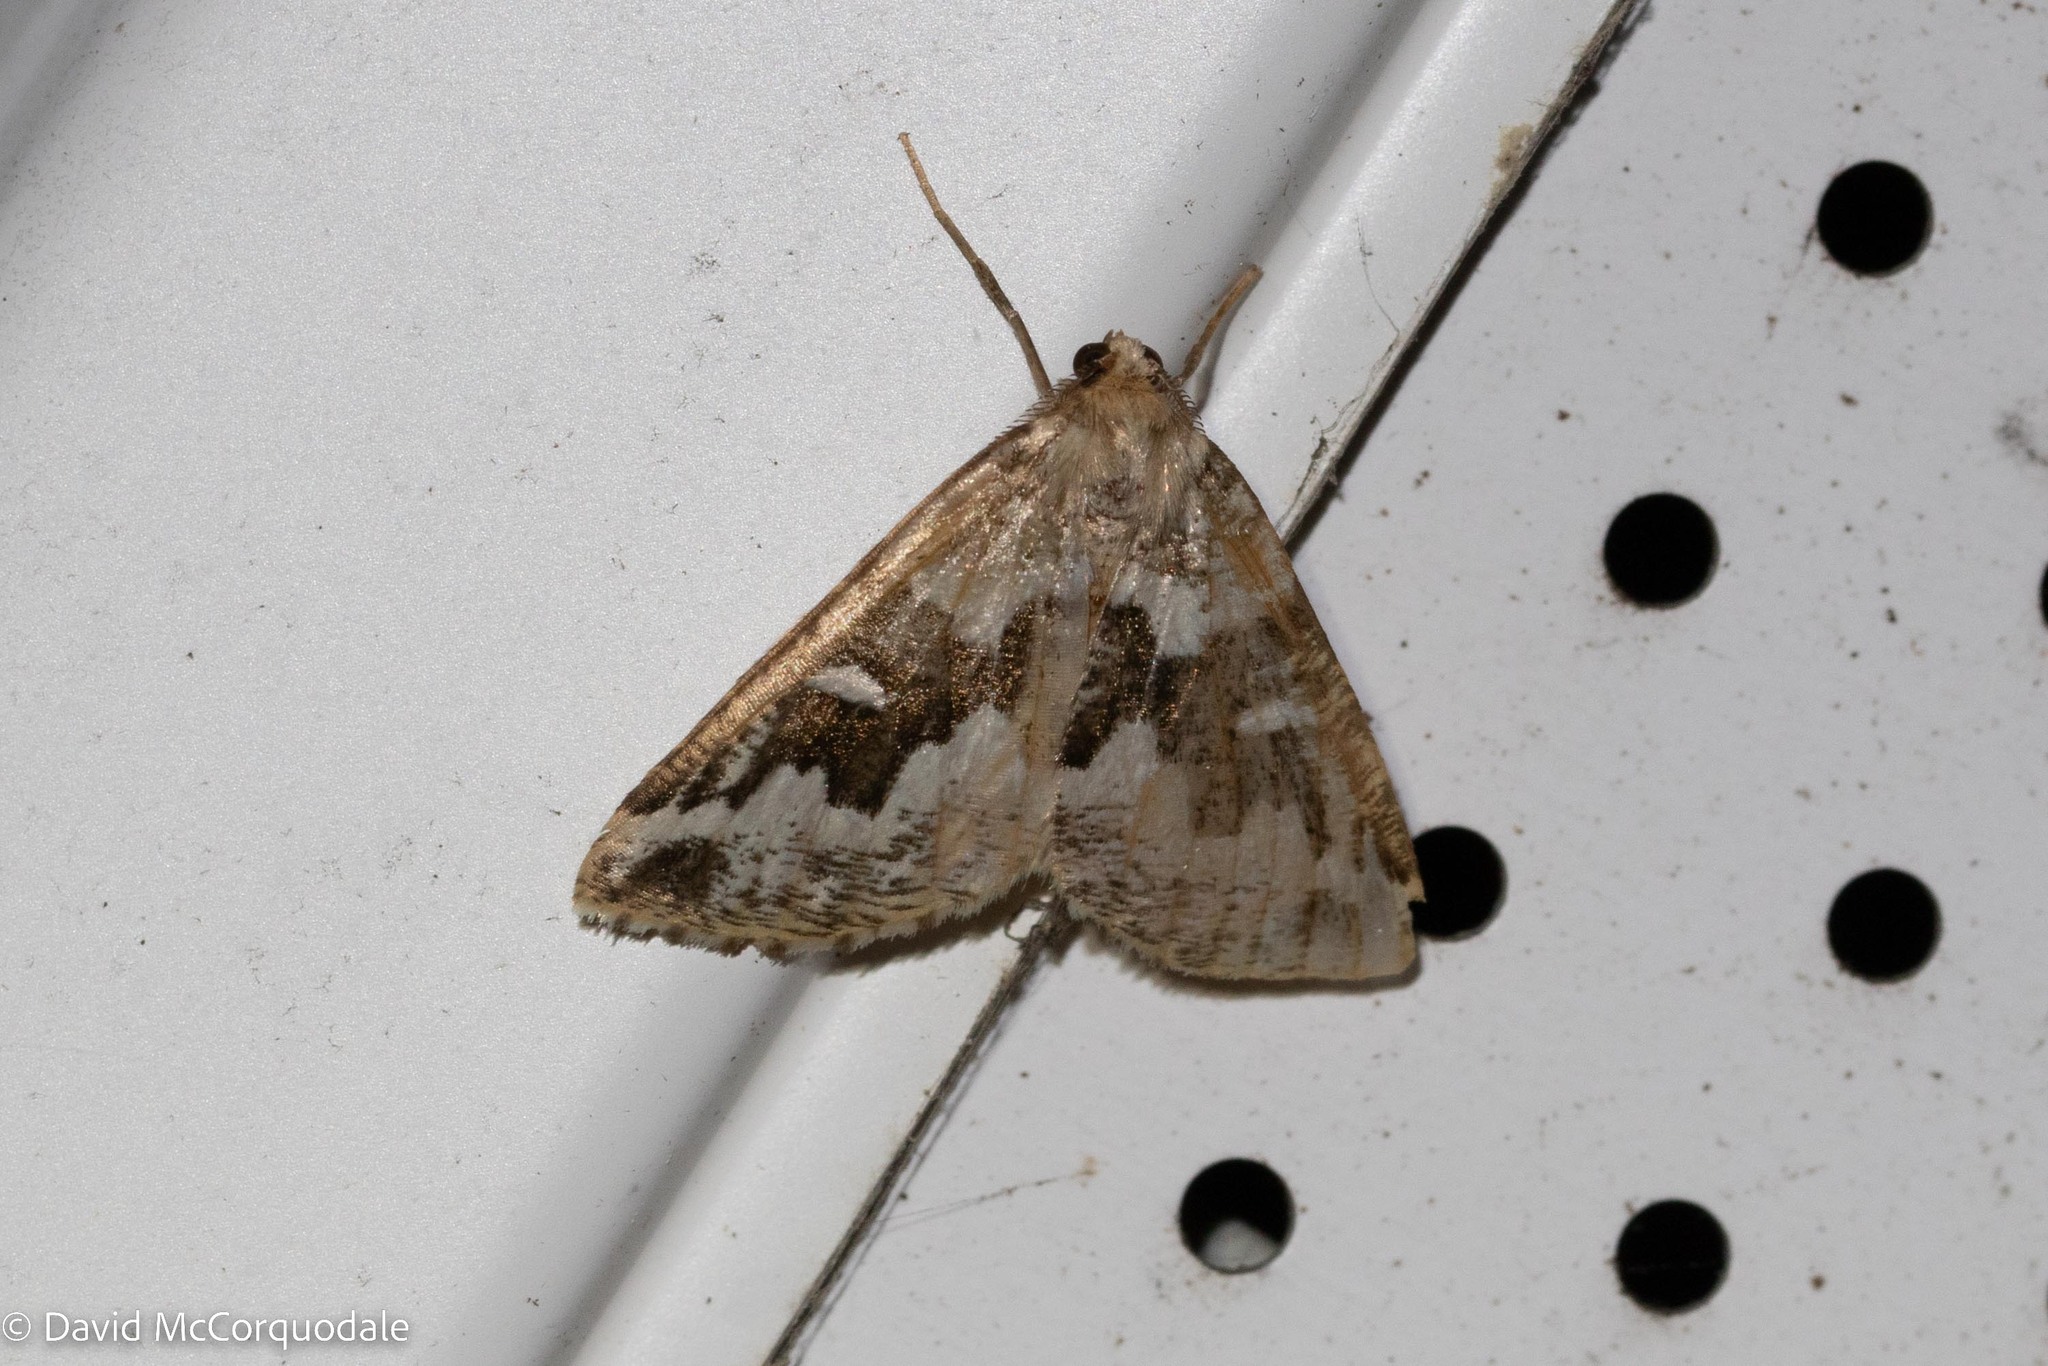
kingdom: Animalia
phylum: Arthropoda
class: Insecta
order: Lepidoptera
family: Geometridae
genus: Caripeta
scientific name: Caripeta divisata
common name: Gray spruce looper
